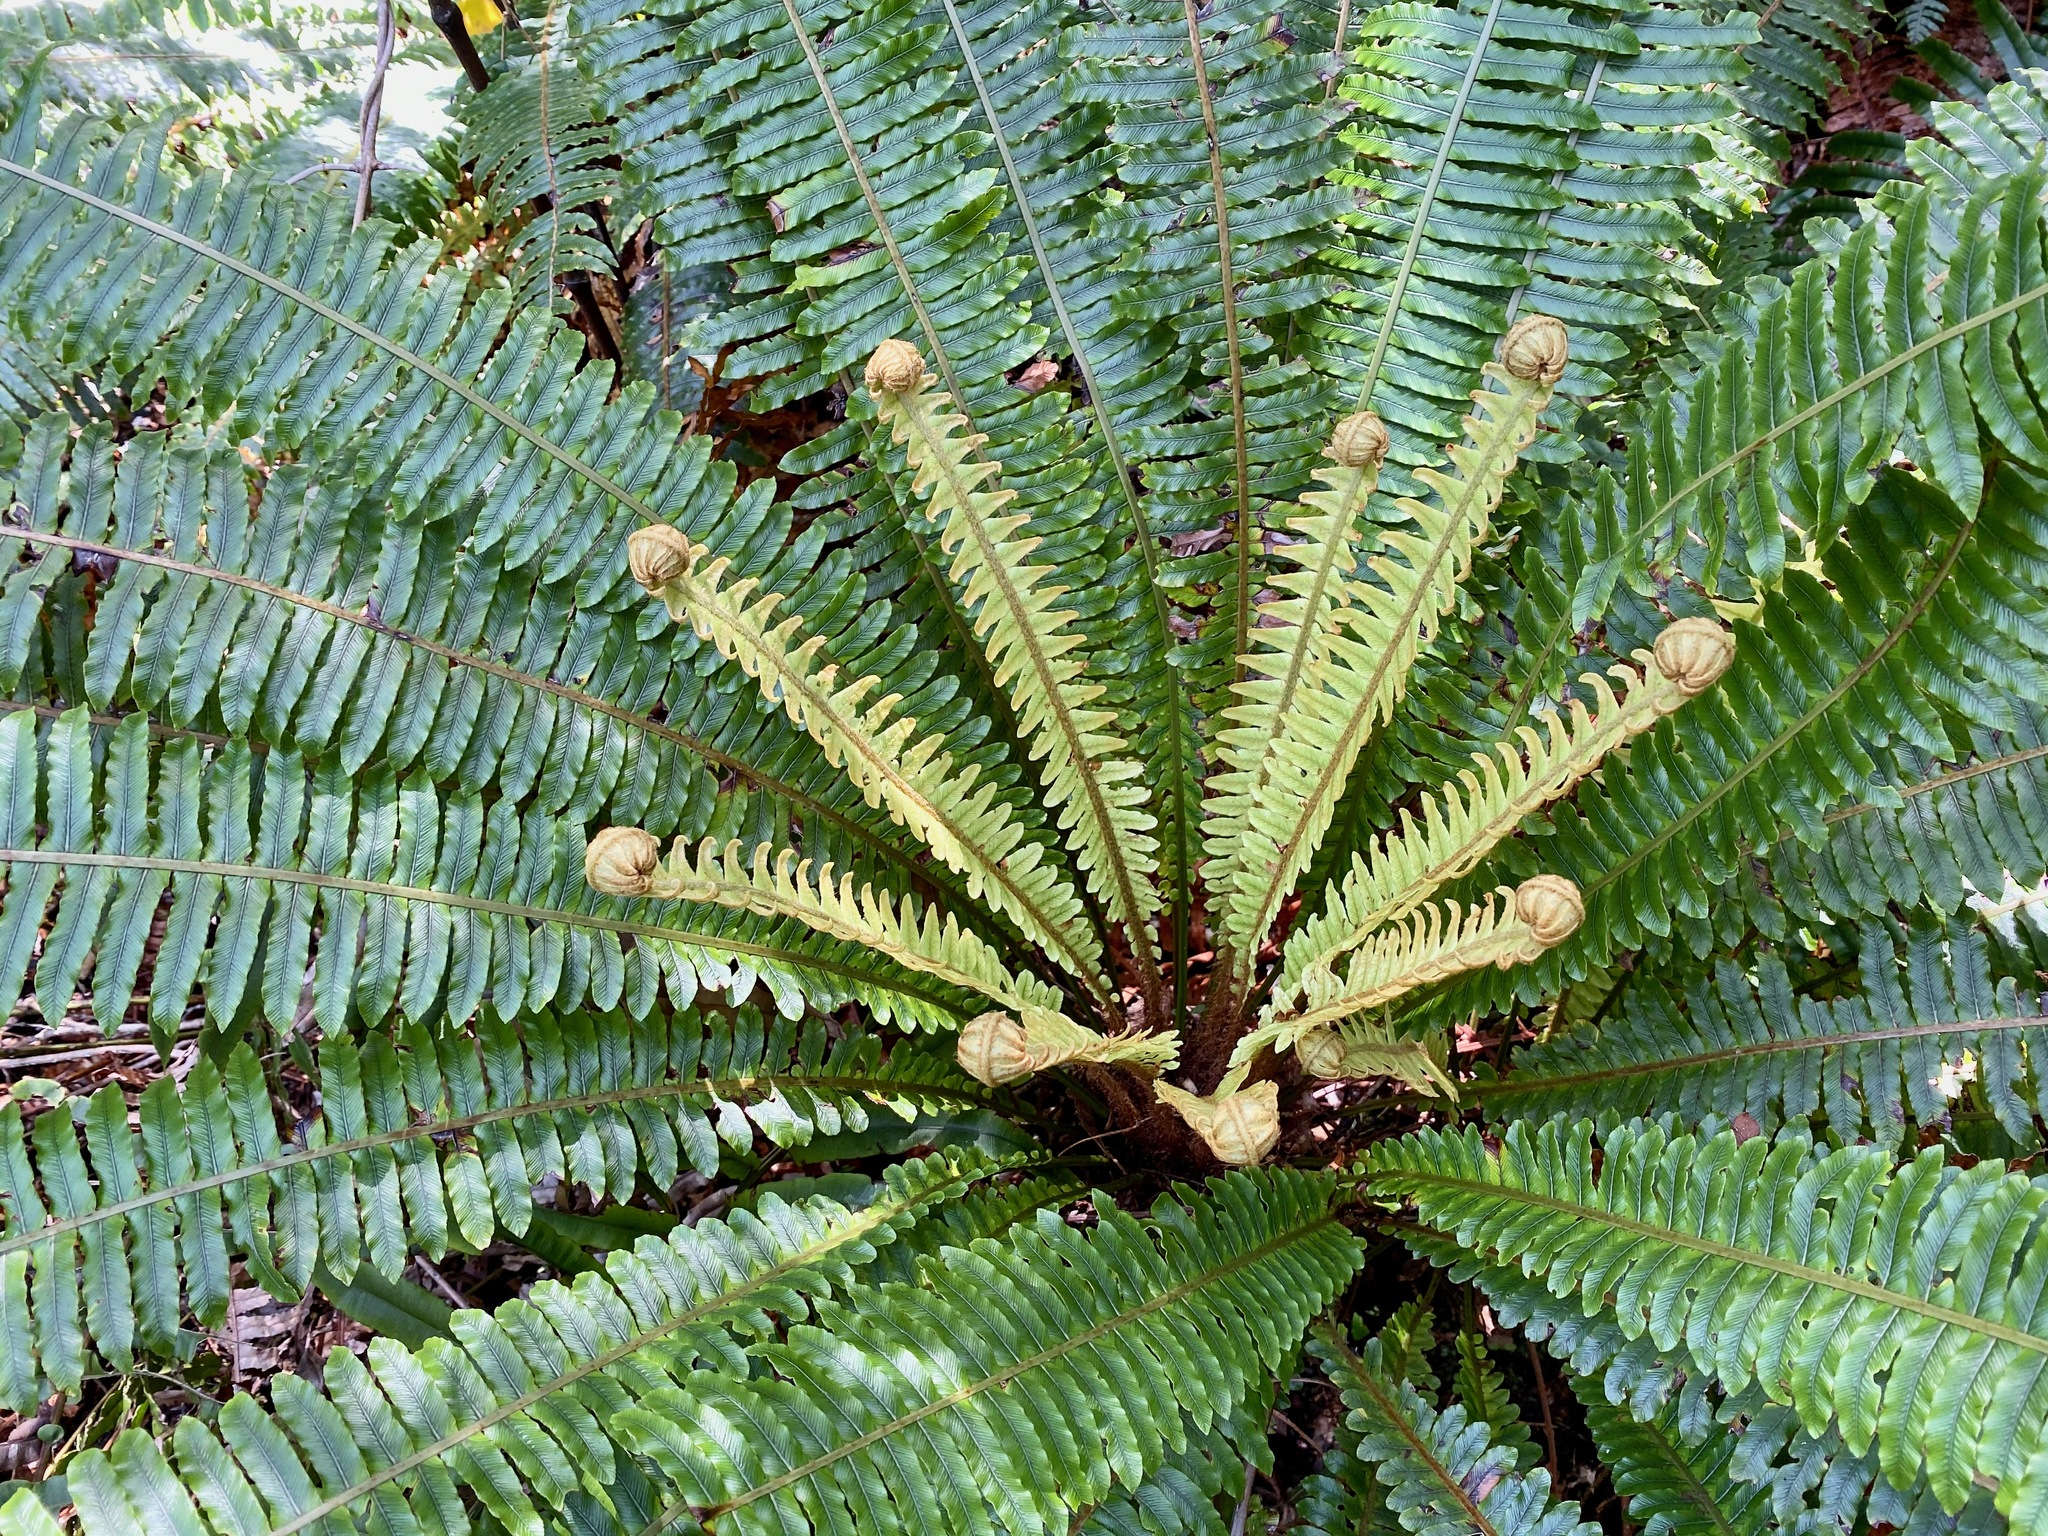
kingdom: Plantae
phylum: Tracheophyta
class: Polypodiopsida
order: Polypodiales
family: Blechnaceae
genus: Lomaria
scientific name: Lomaria discolor
